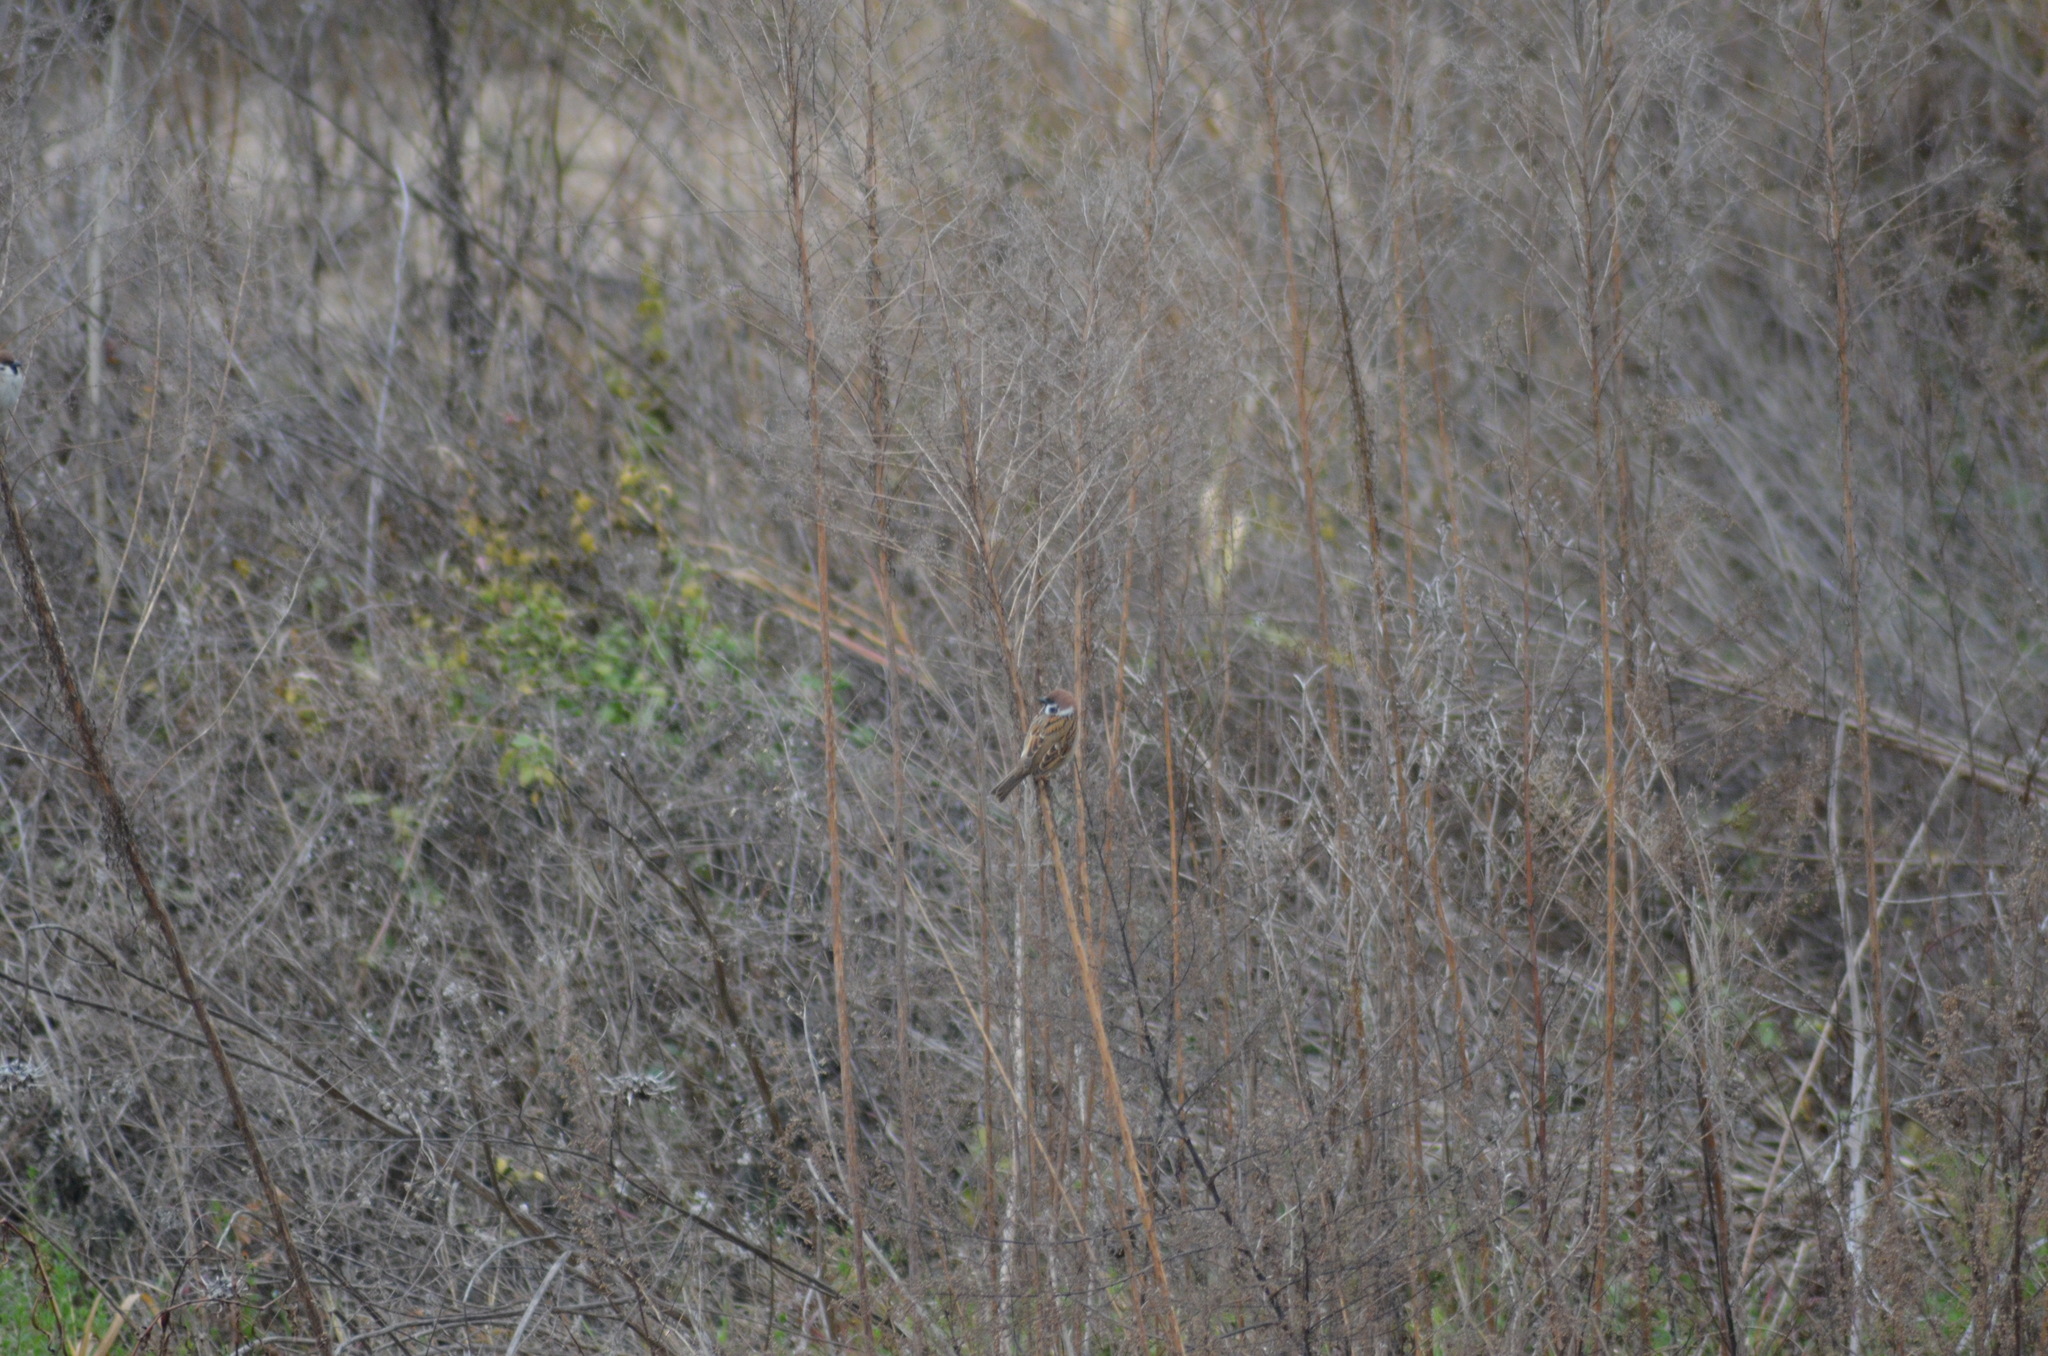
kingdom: Animalia
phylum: Chordata
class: Aves
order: Passeriformes
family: Passeridae
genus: Passer
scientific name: Passer montanus
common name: Eurasian tree sparrow
